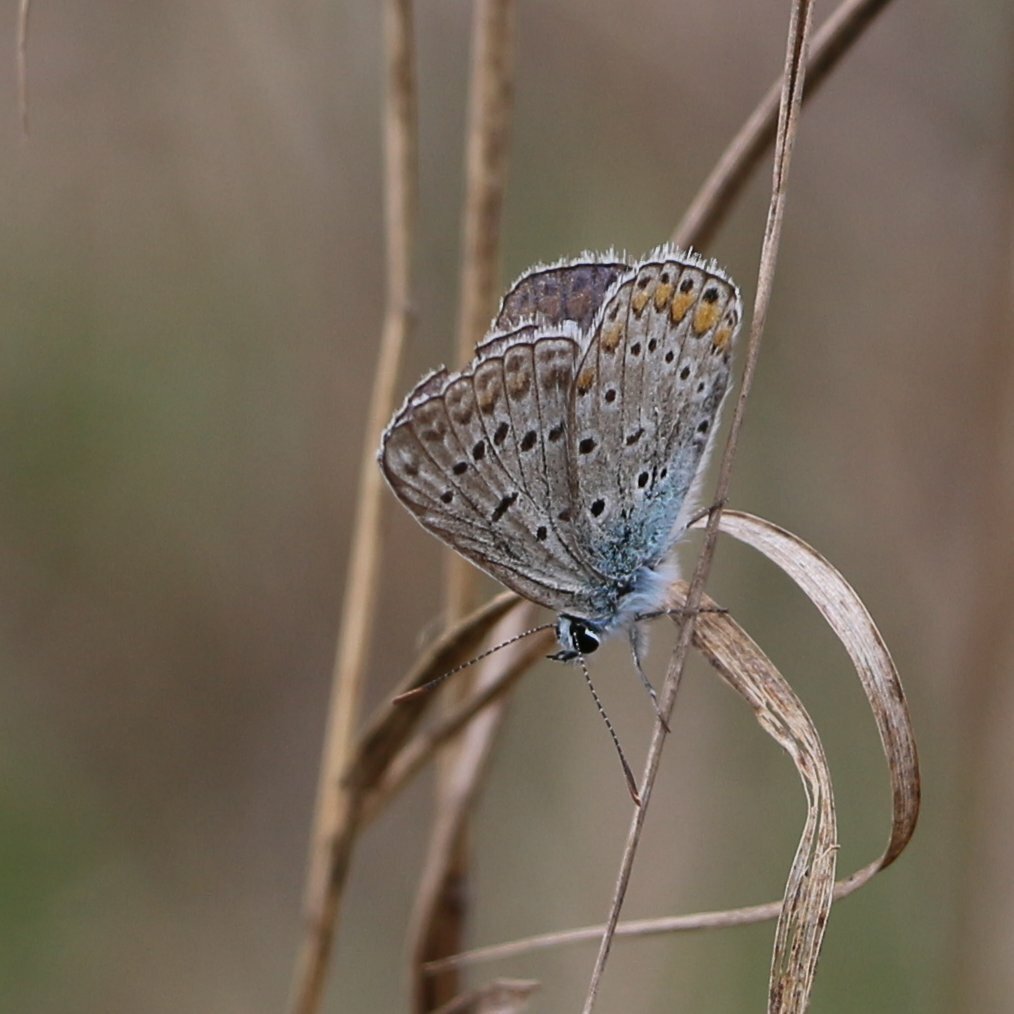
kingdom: Animalia
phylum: Arthropoda
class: Insecta
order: Lepidoptera
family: Lycaenidae
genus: Polyommatus
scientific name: Polyommatus icarus
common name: Common blue
